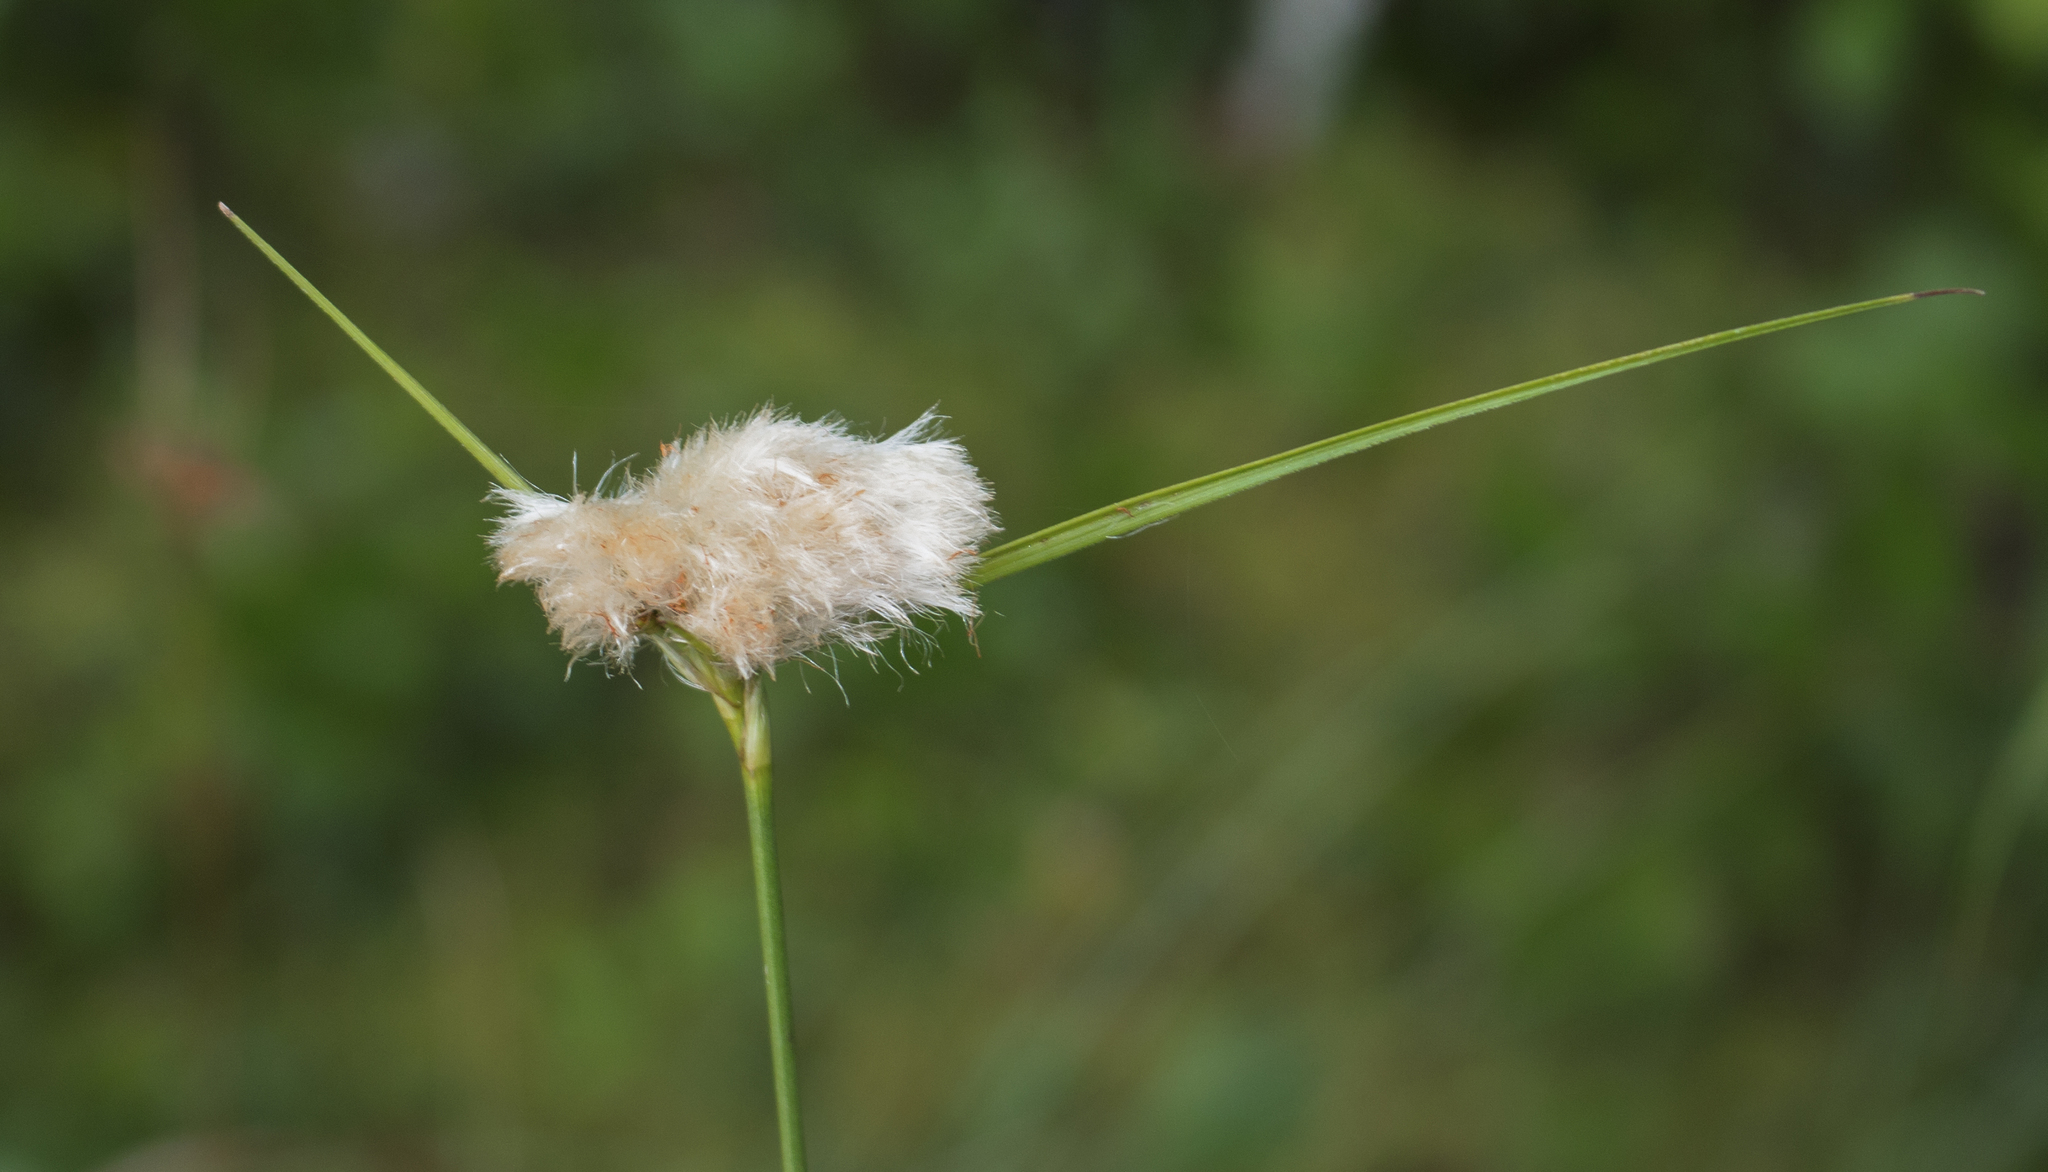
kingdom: Plantae
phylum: Tracheophyta
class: Liliopsida
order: Poales
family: Cyperaceae
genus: Eriophorum
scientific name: Eriophorum virginicum
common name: Tawny cottongrass
